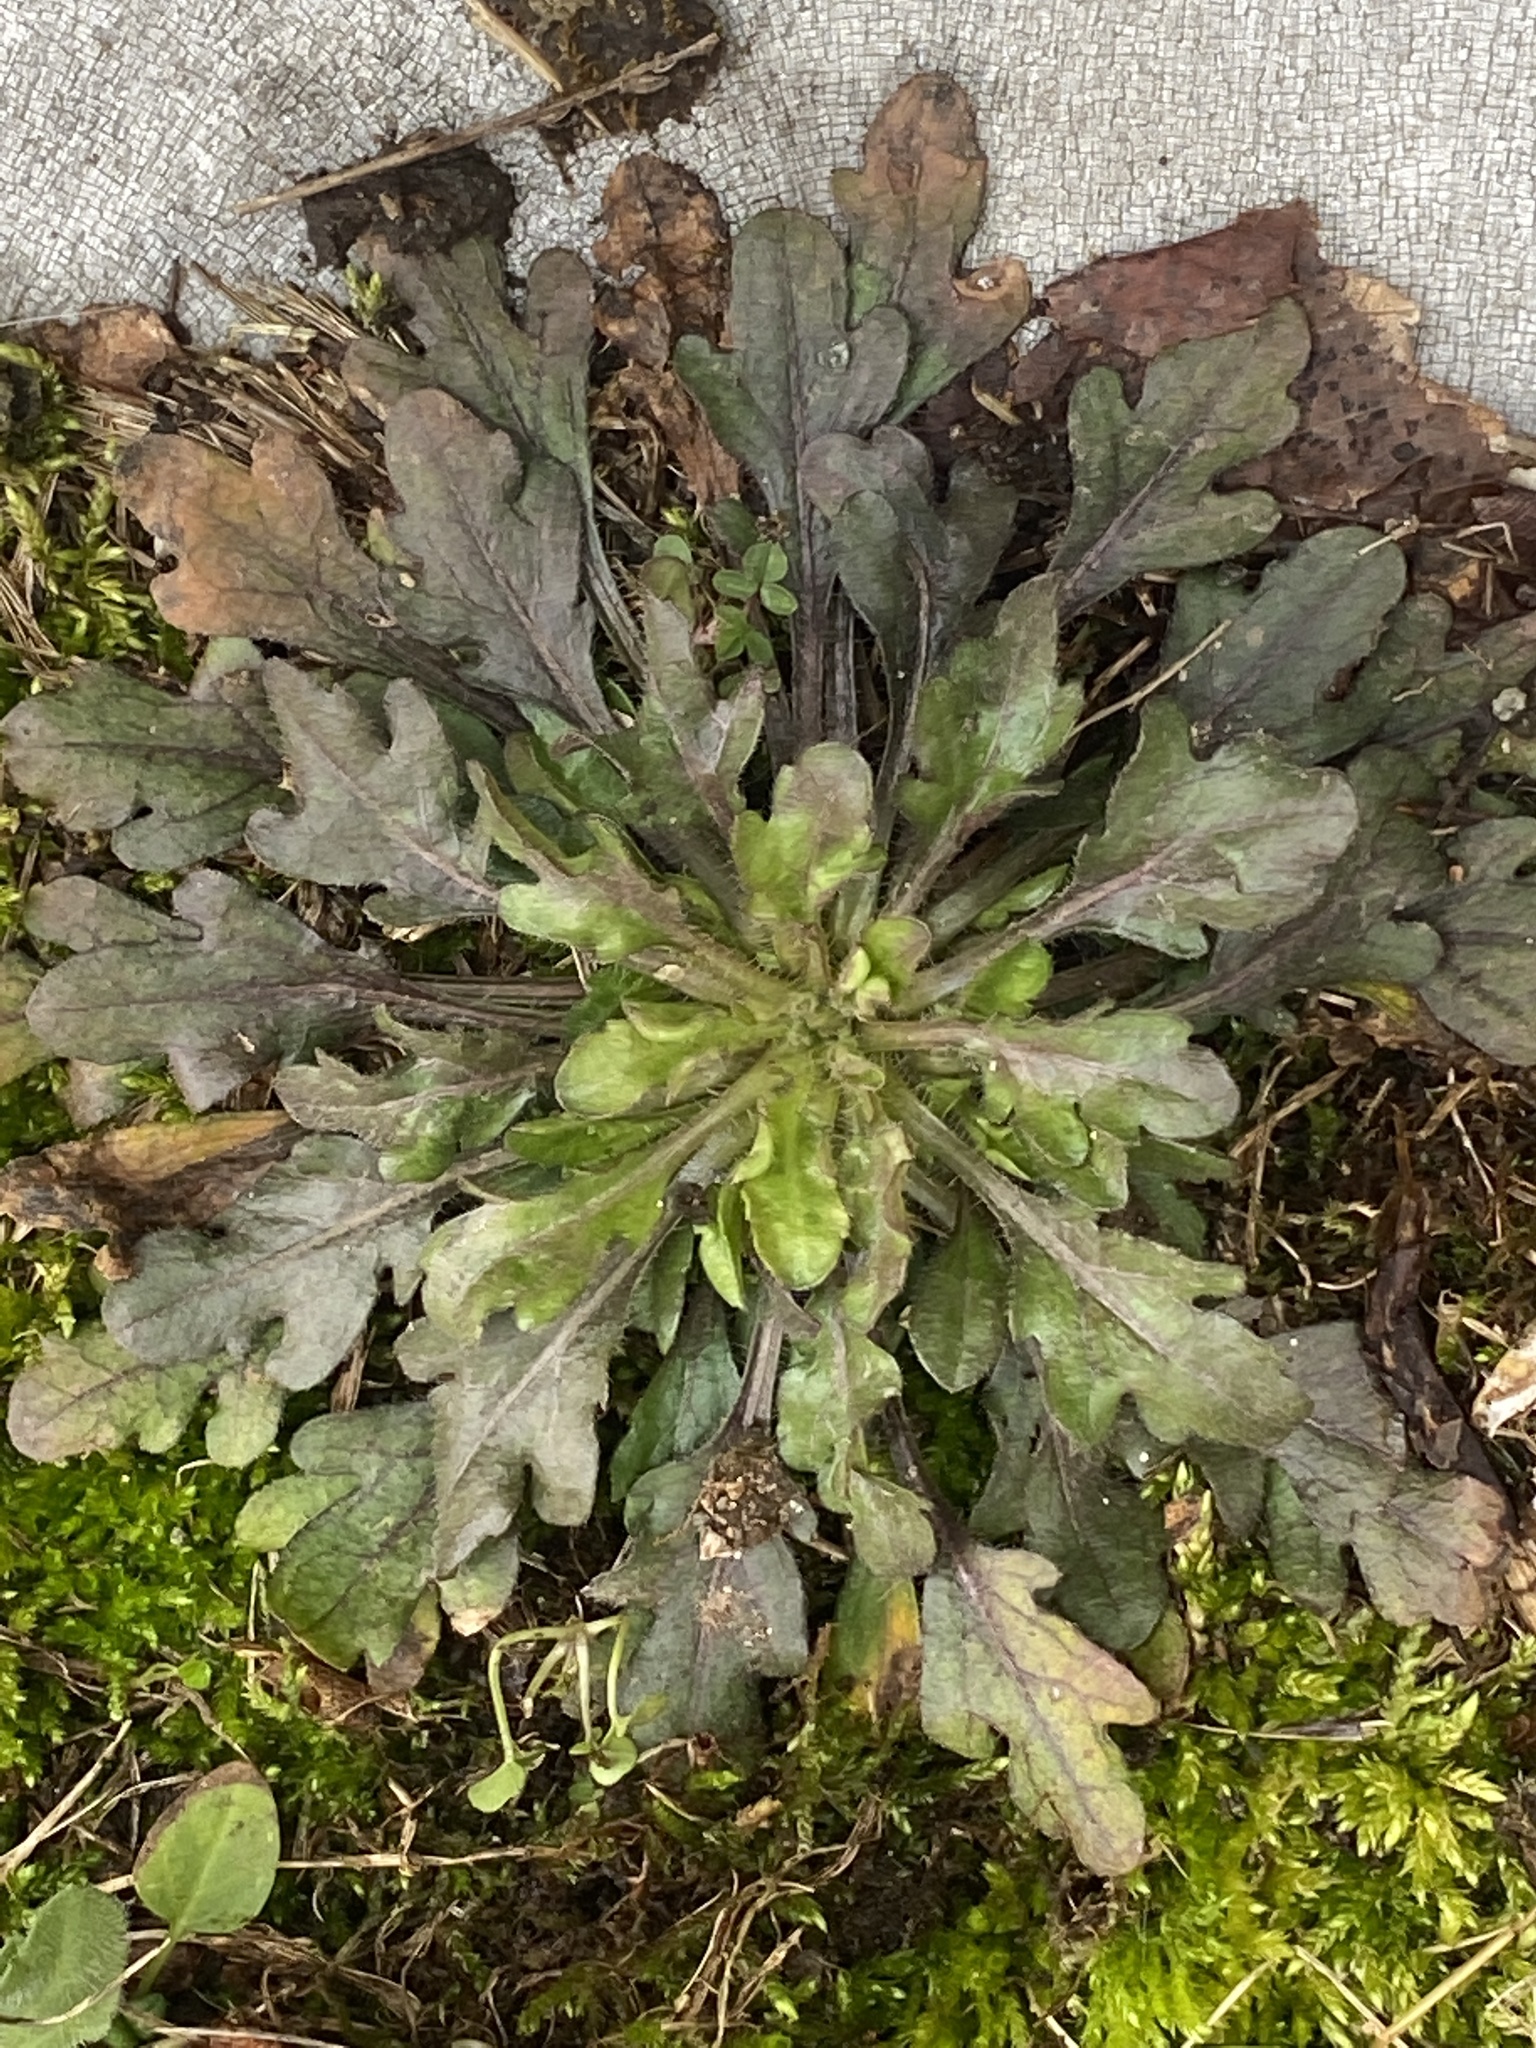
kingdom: Plantae
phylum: Tracheophyta
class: Magnoliopsida
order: Asterales
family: Asteraceae
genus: Erigeron
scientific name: Erigeron canadensis
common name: Canadian fleabane
